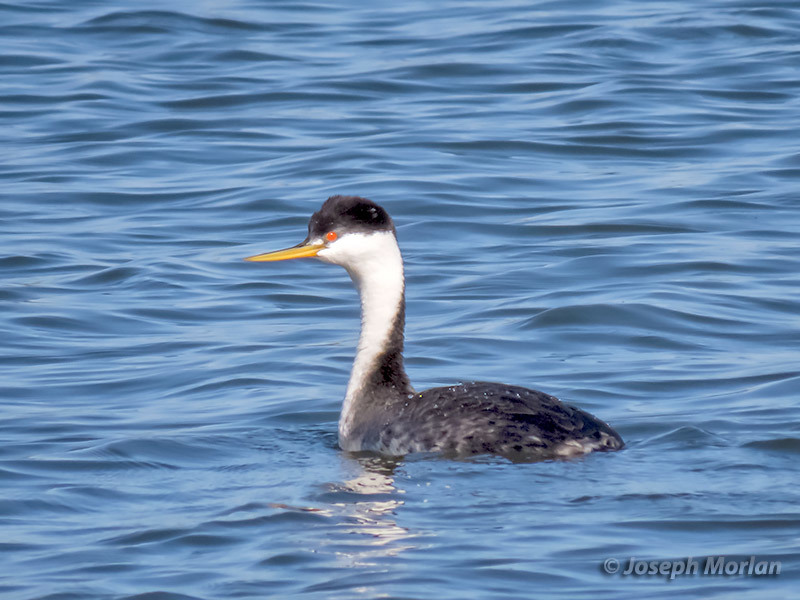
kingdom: Animalia
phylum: Chordata
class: Aves
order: Podicipediformes
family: Podicipedidae
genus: Aechmophorus
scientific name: Aechmophorus clarkii
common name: Clark's grebe
